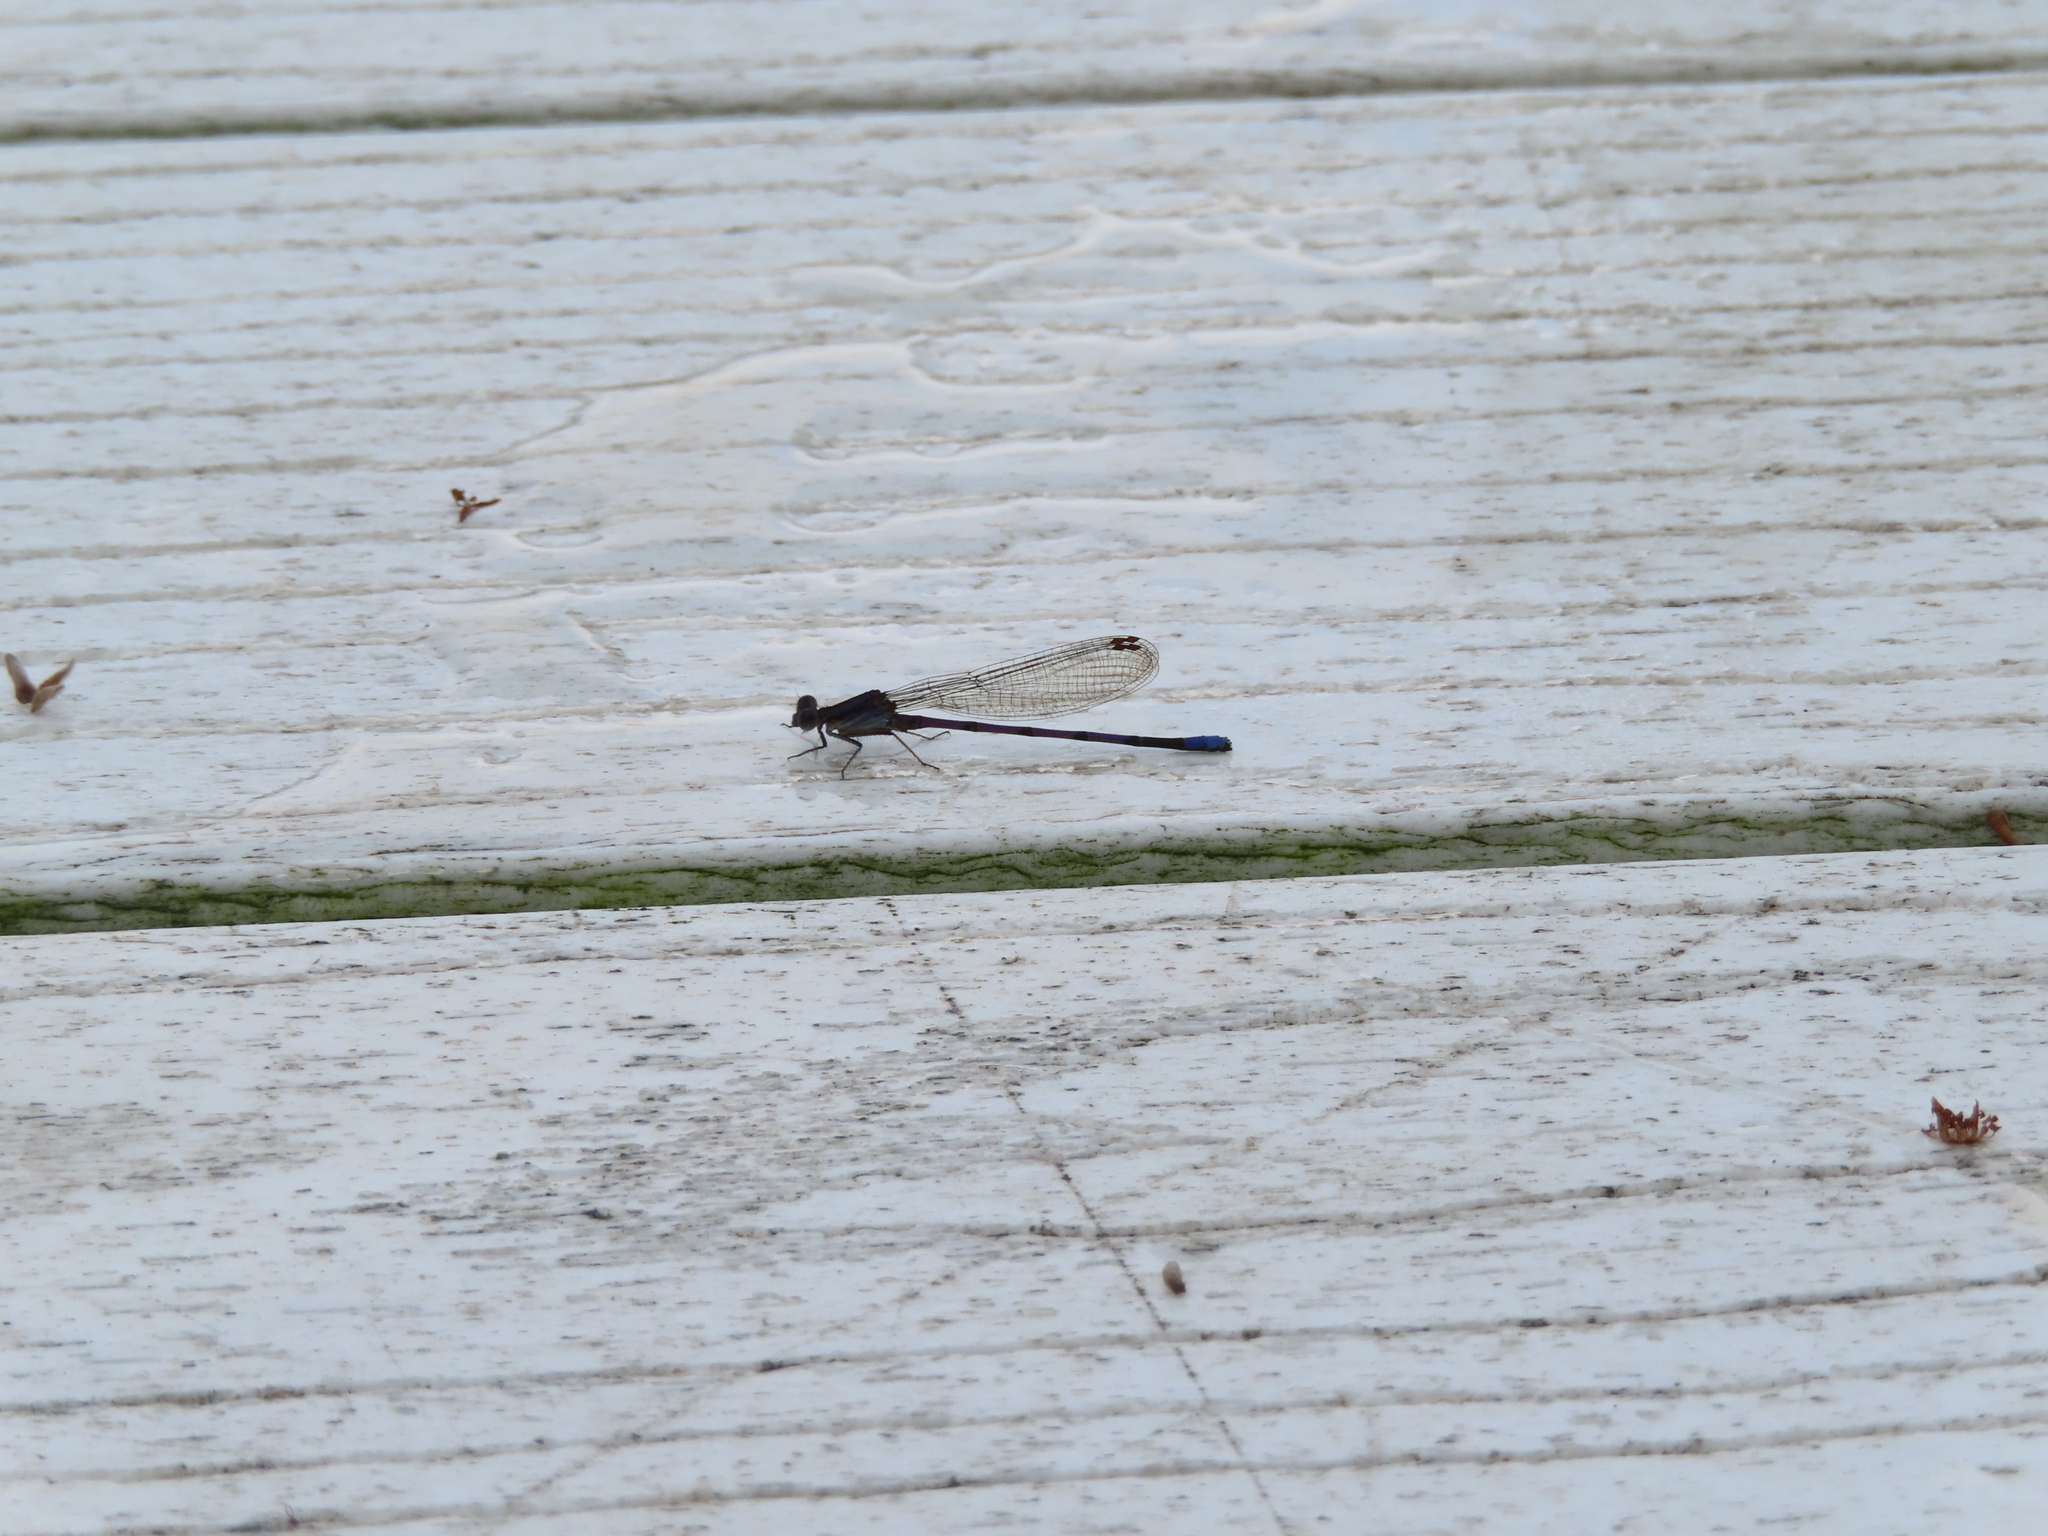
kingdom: Animalia
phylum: Arthropoda
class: Insecta
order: Odonata
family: Coenagrionidae
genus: Argia
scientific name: Argia fumipennis
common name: Variable dancer
